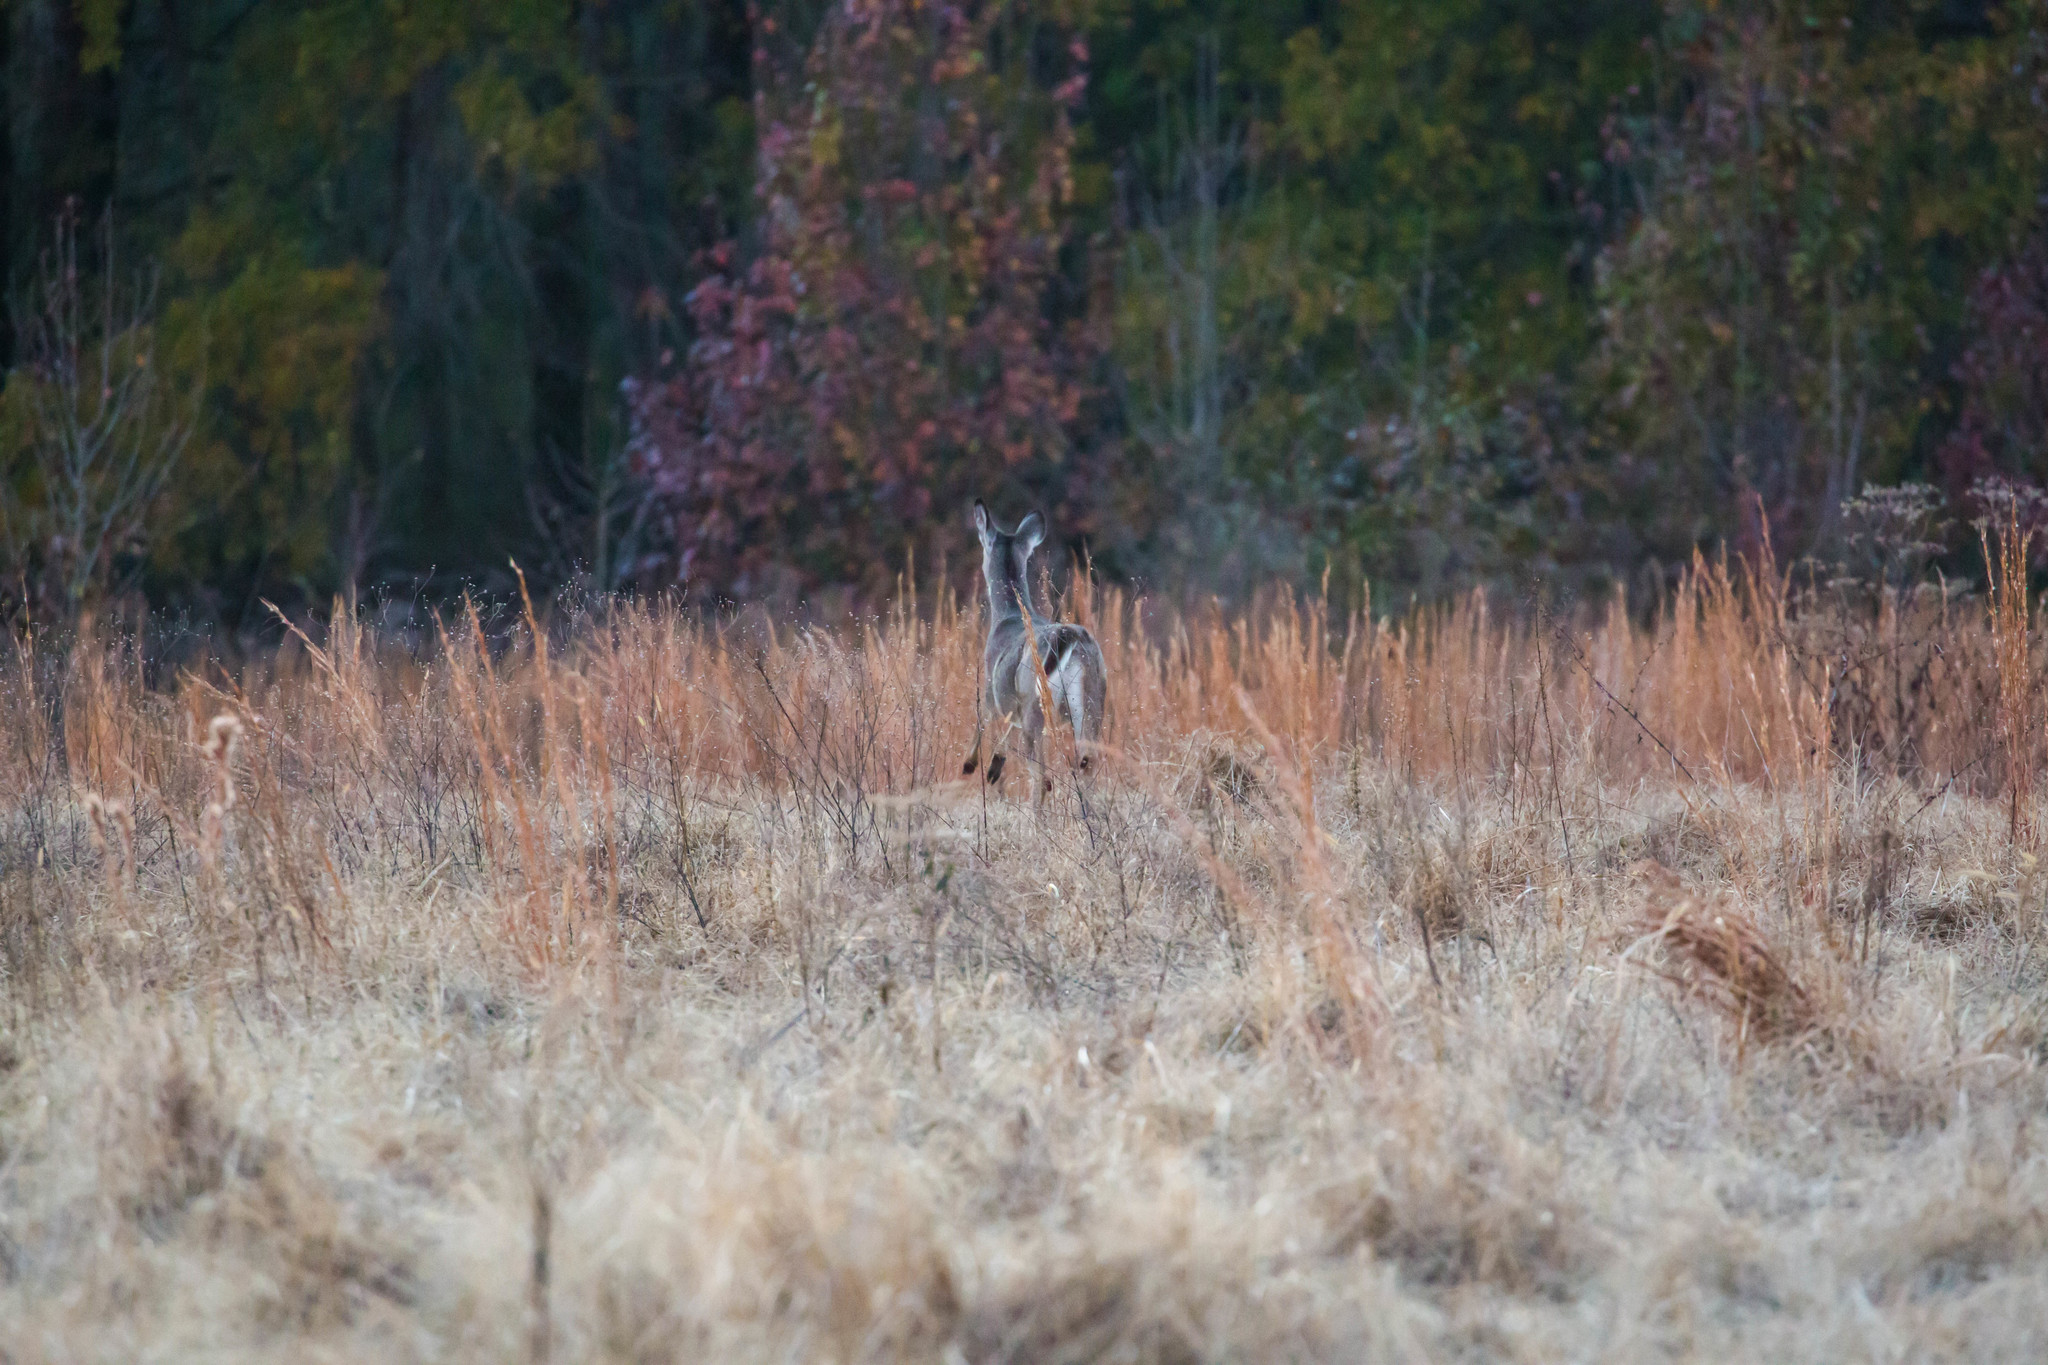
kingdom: Animalia
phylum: Chordata
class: Mammalia
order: Artiodactyla
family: Cervidae
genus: Odocoileus
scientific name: Odocoileus virginianus
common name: White-tailed deer
